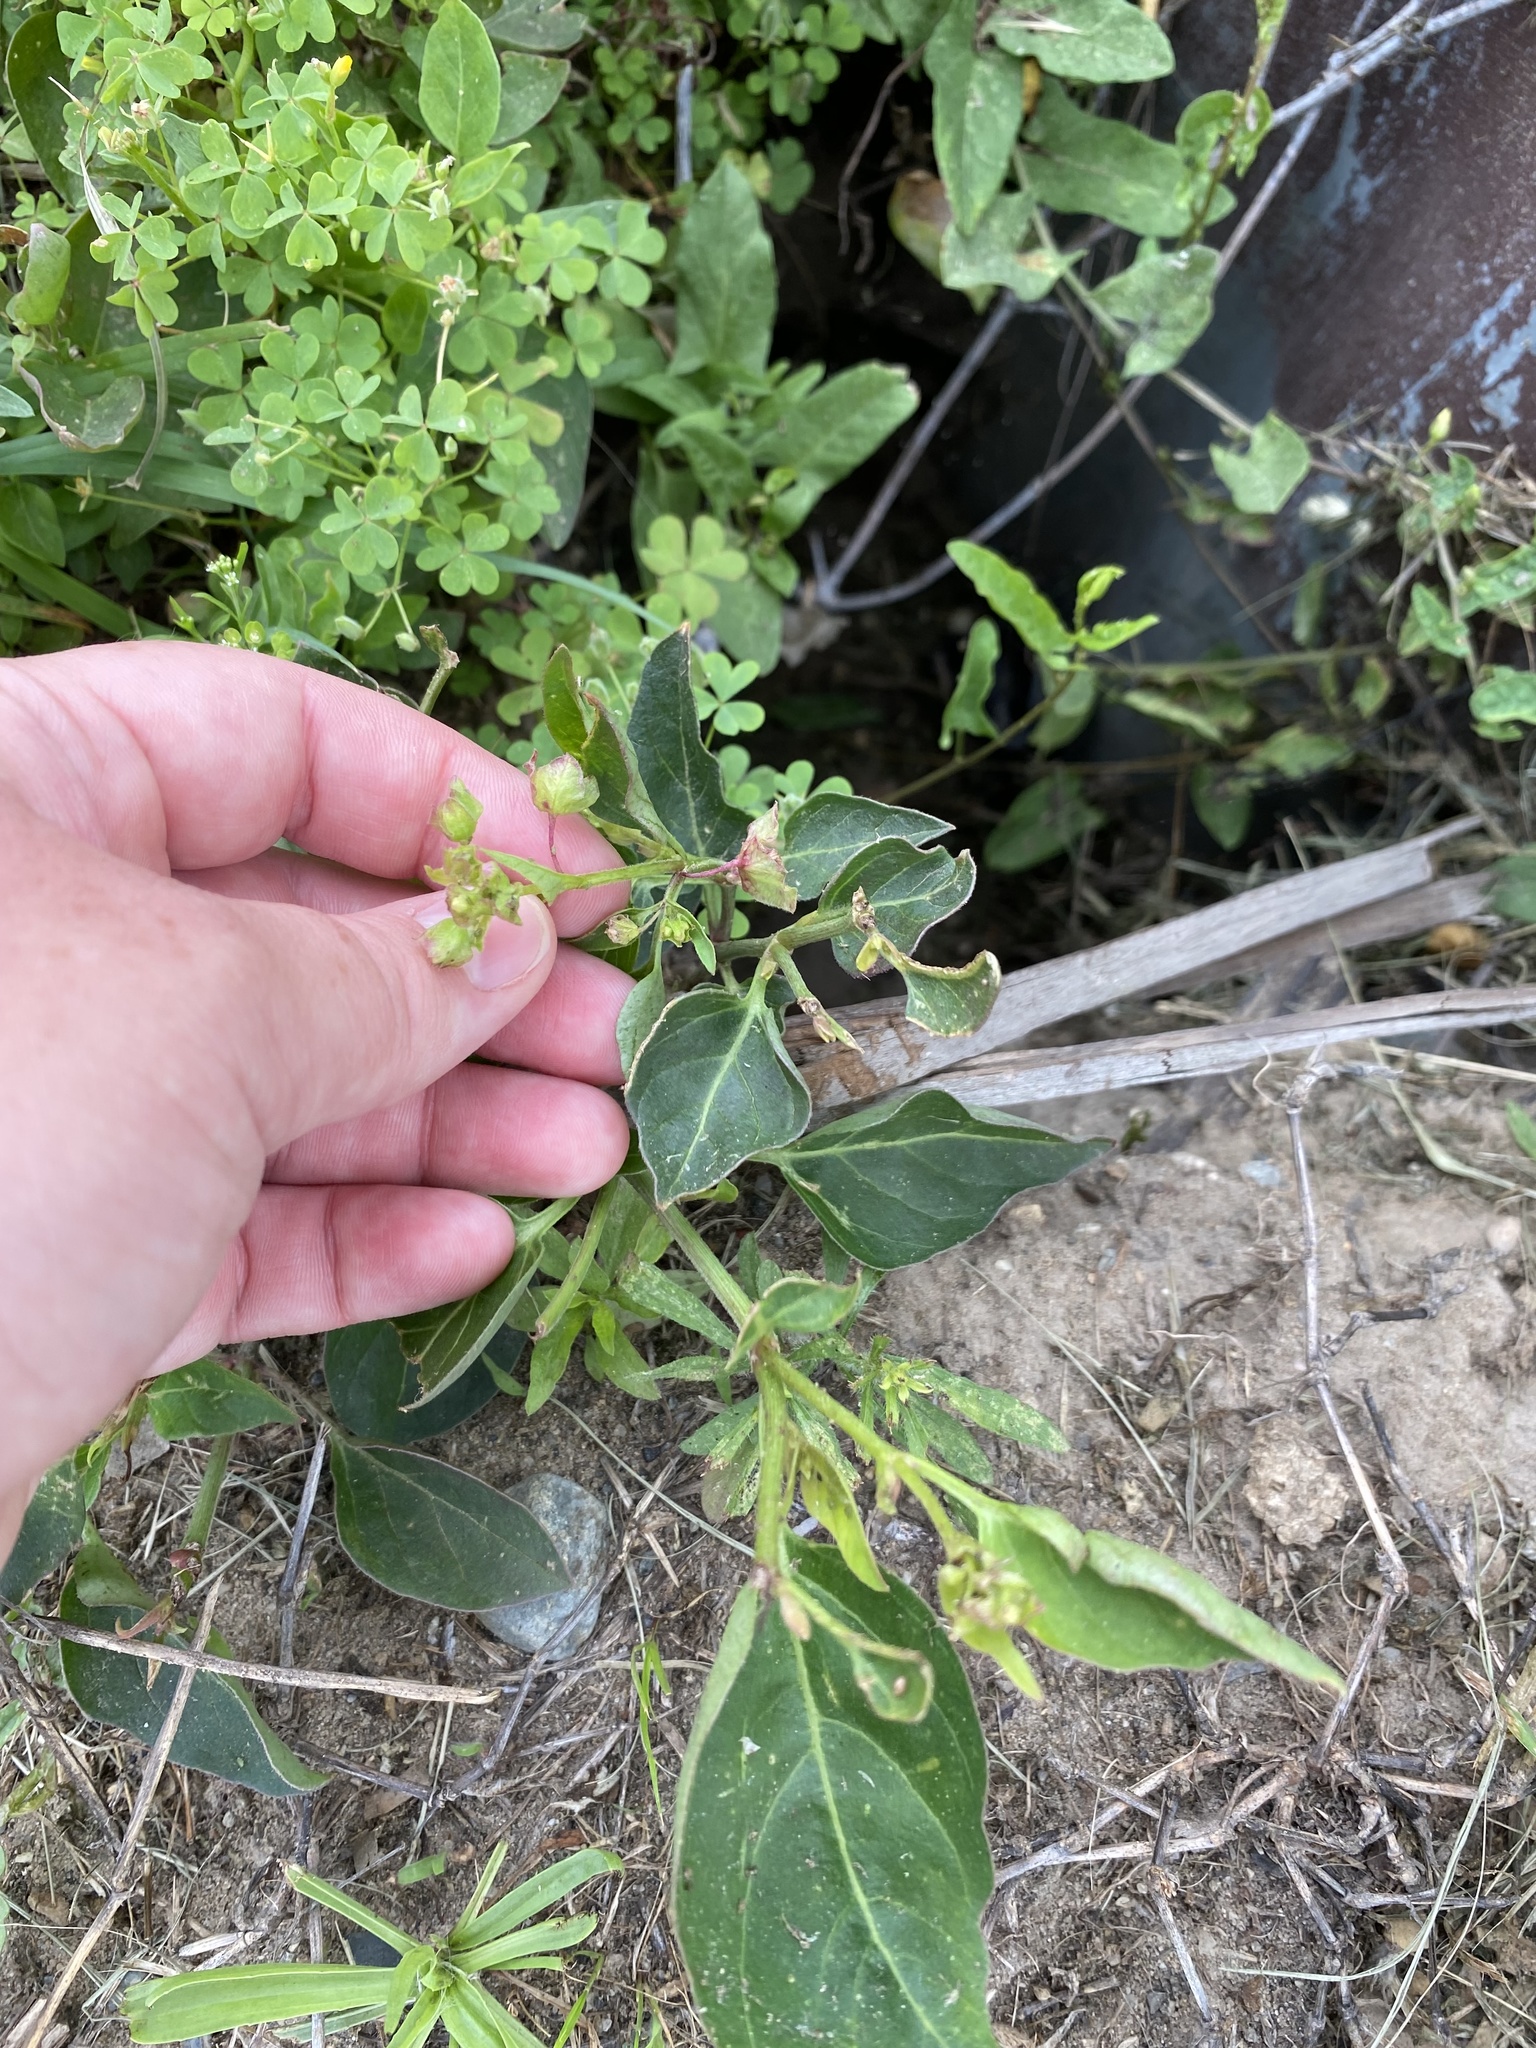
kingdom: Plantae
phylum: Tracheophyta
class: Magnoliopsida
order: Caryophyllales
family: Nyctaginaceae
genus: Mirabilis
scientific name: Mirabilis nyctaginea
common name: Umbrella wort
